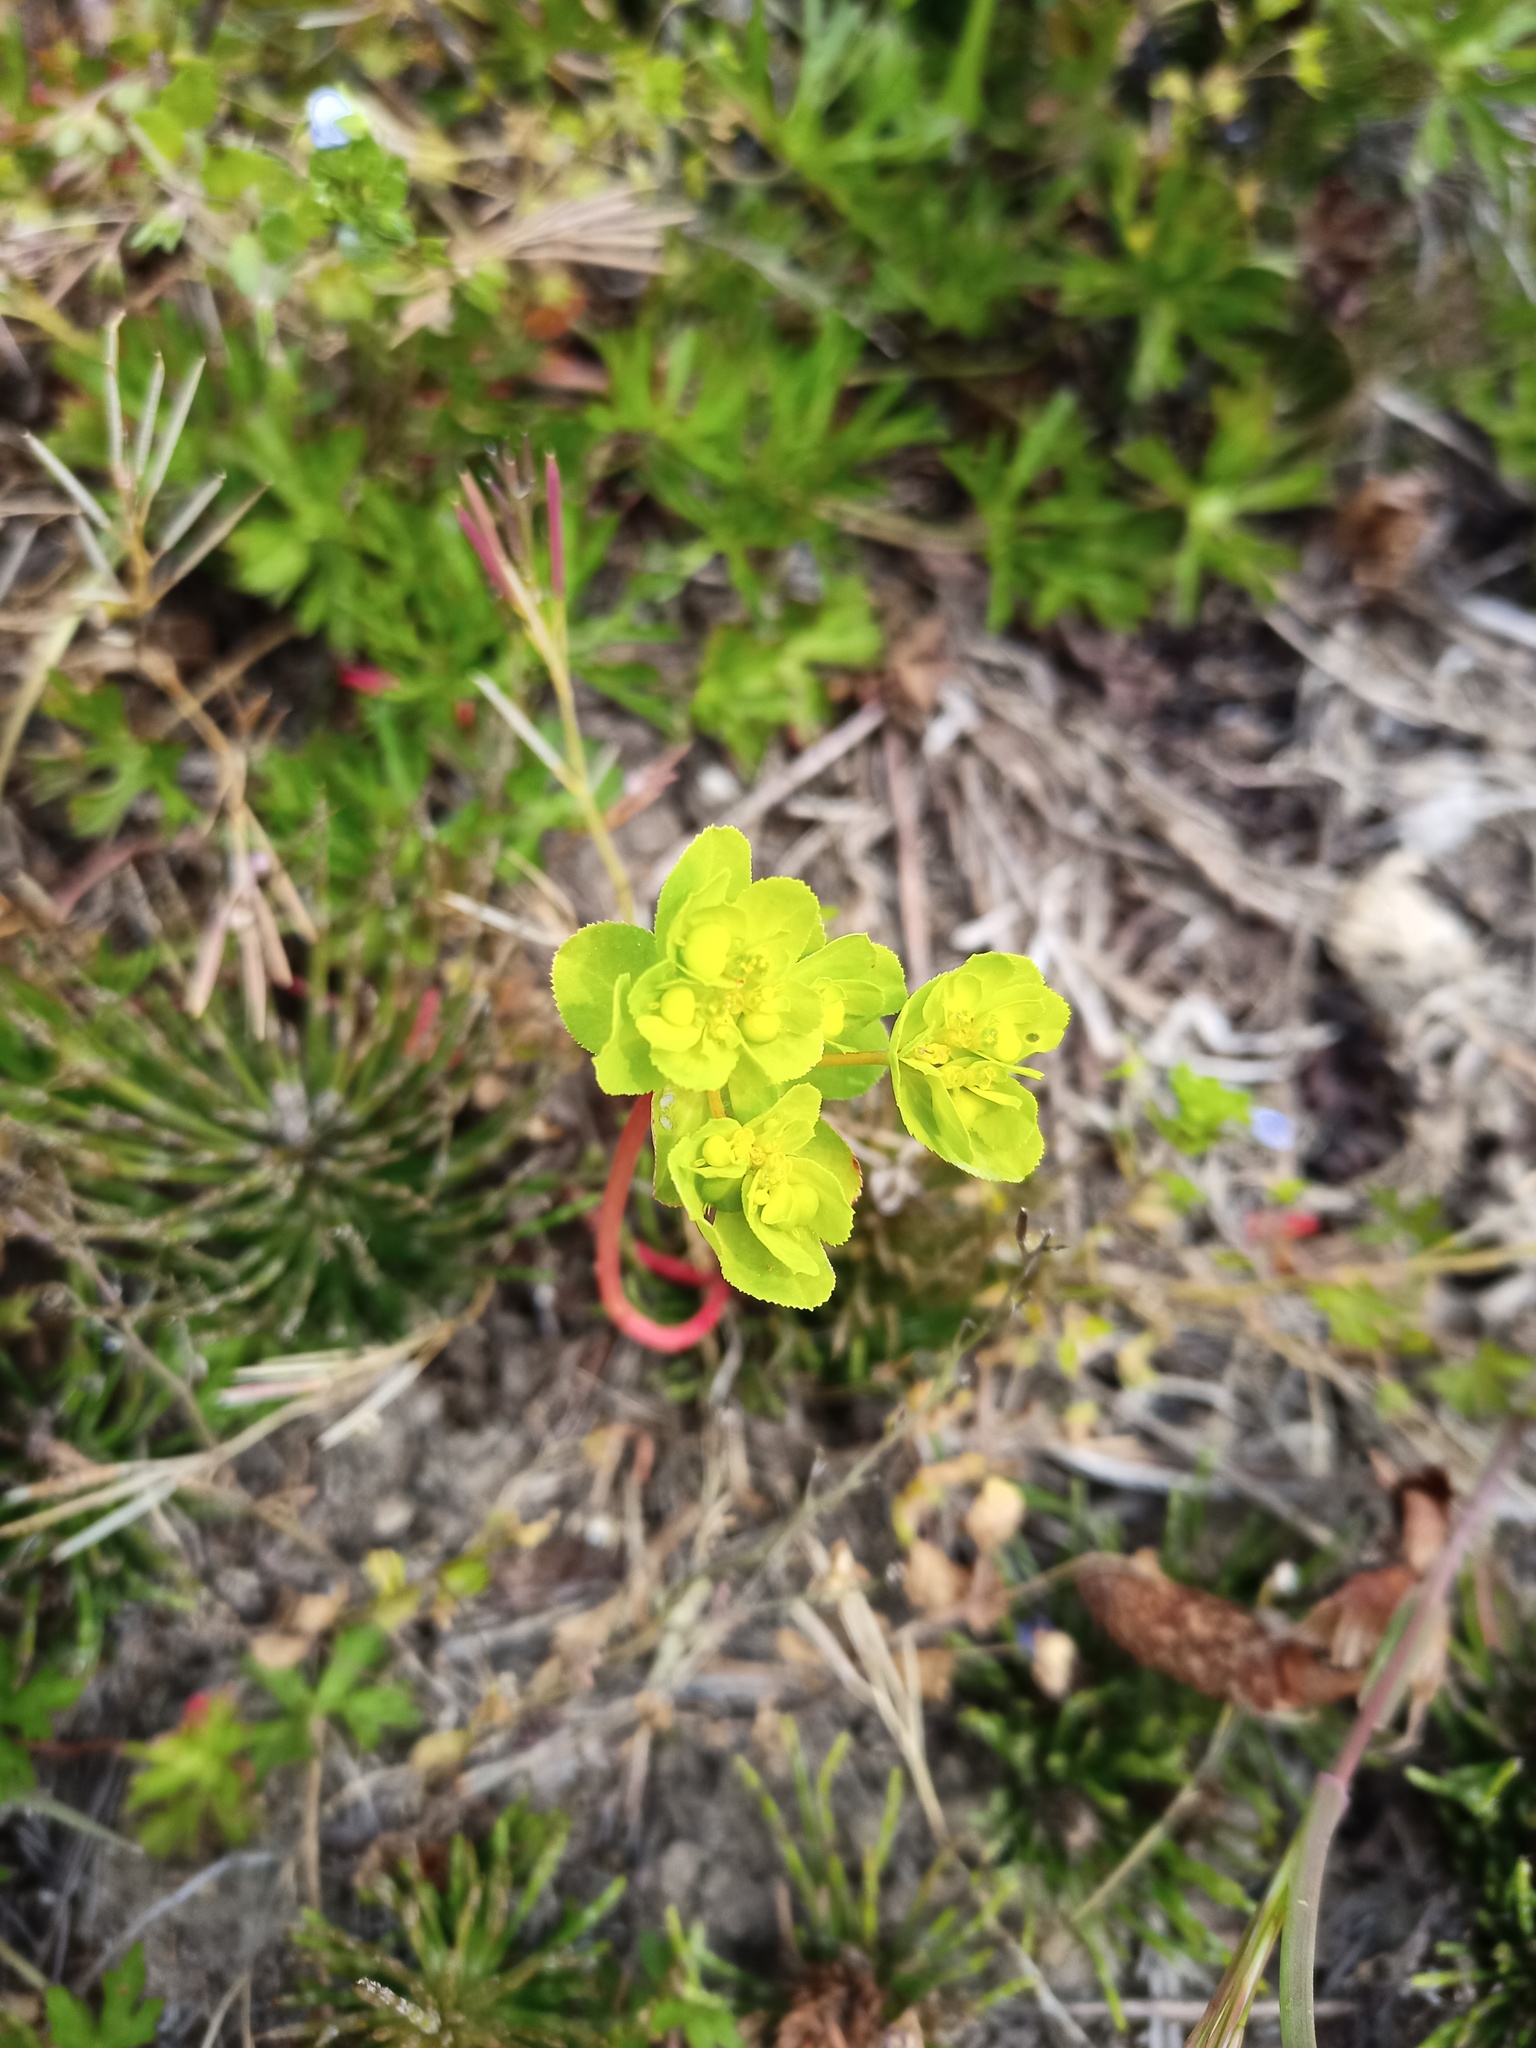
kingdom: Plantae
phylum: Tracheophyta
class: Magnoliopsida
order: Malpighiales
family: Euphorbiaceae
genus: Euphorbia
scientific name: Euphorbia helioscopia
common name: Sun spurge
